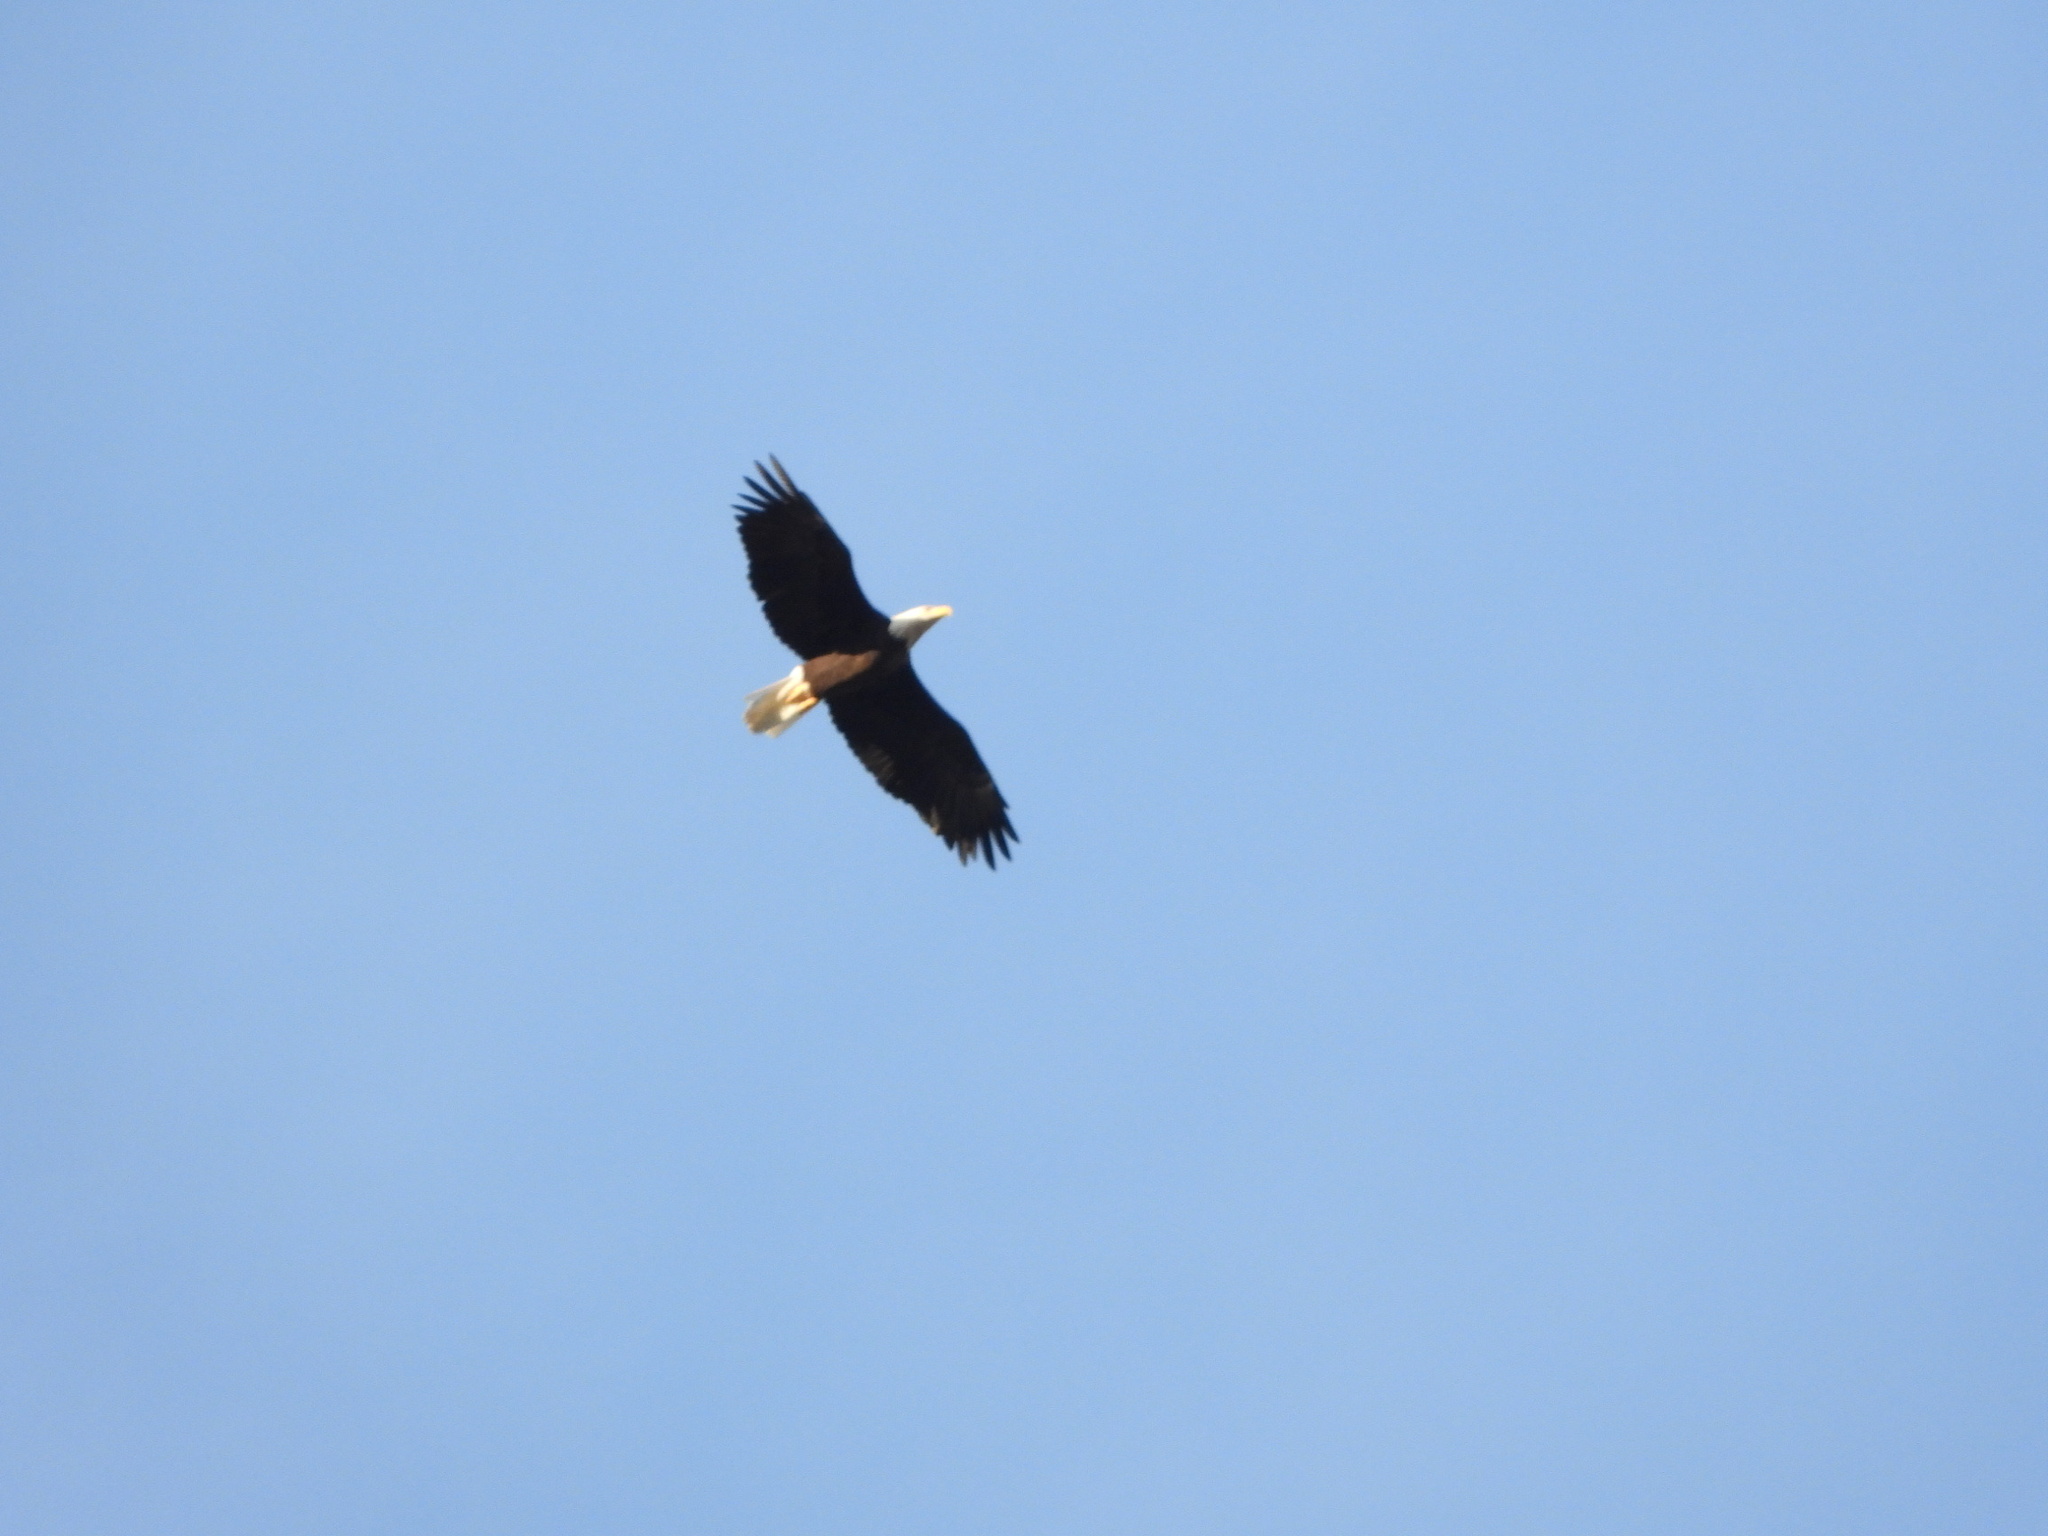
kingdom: Animalia
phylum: Chordata
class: Aves
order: Accipitriformes
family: Accipitridae
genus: Haliaeetus
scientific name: Haliaeetus leucocephalus
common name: Bald eagle
